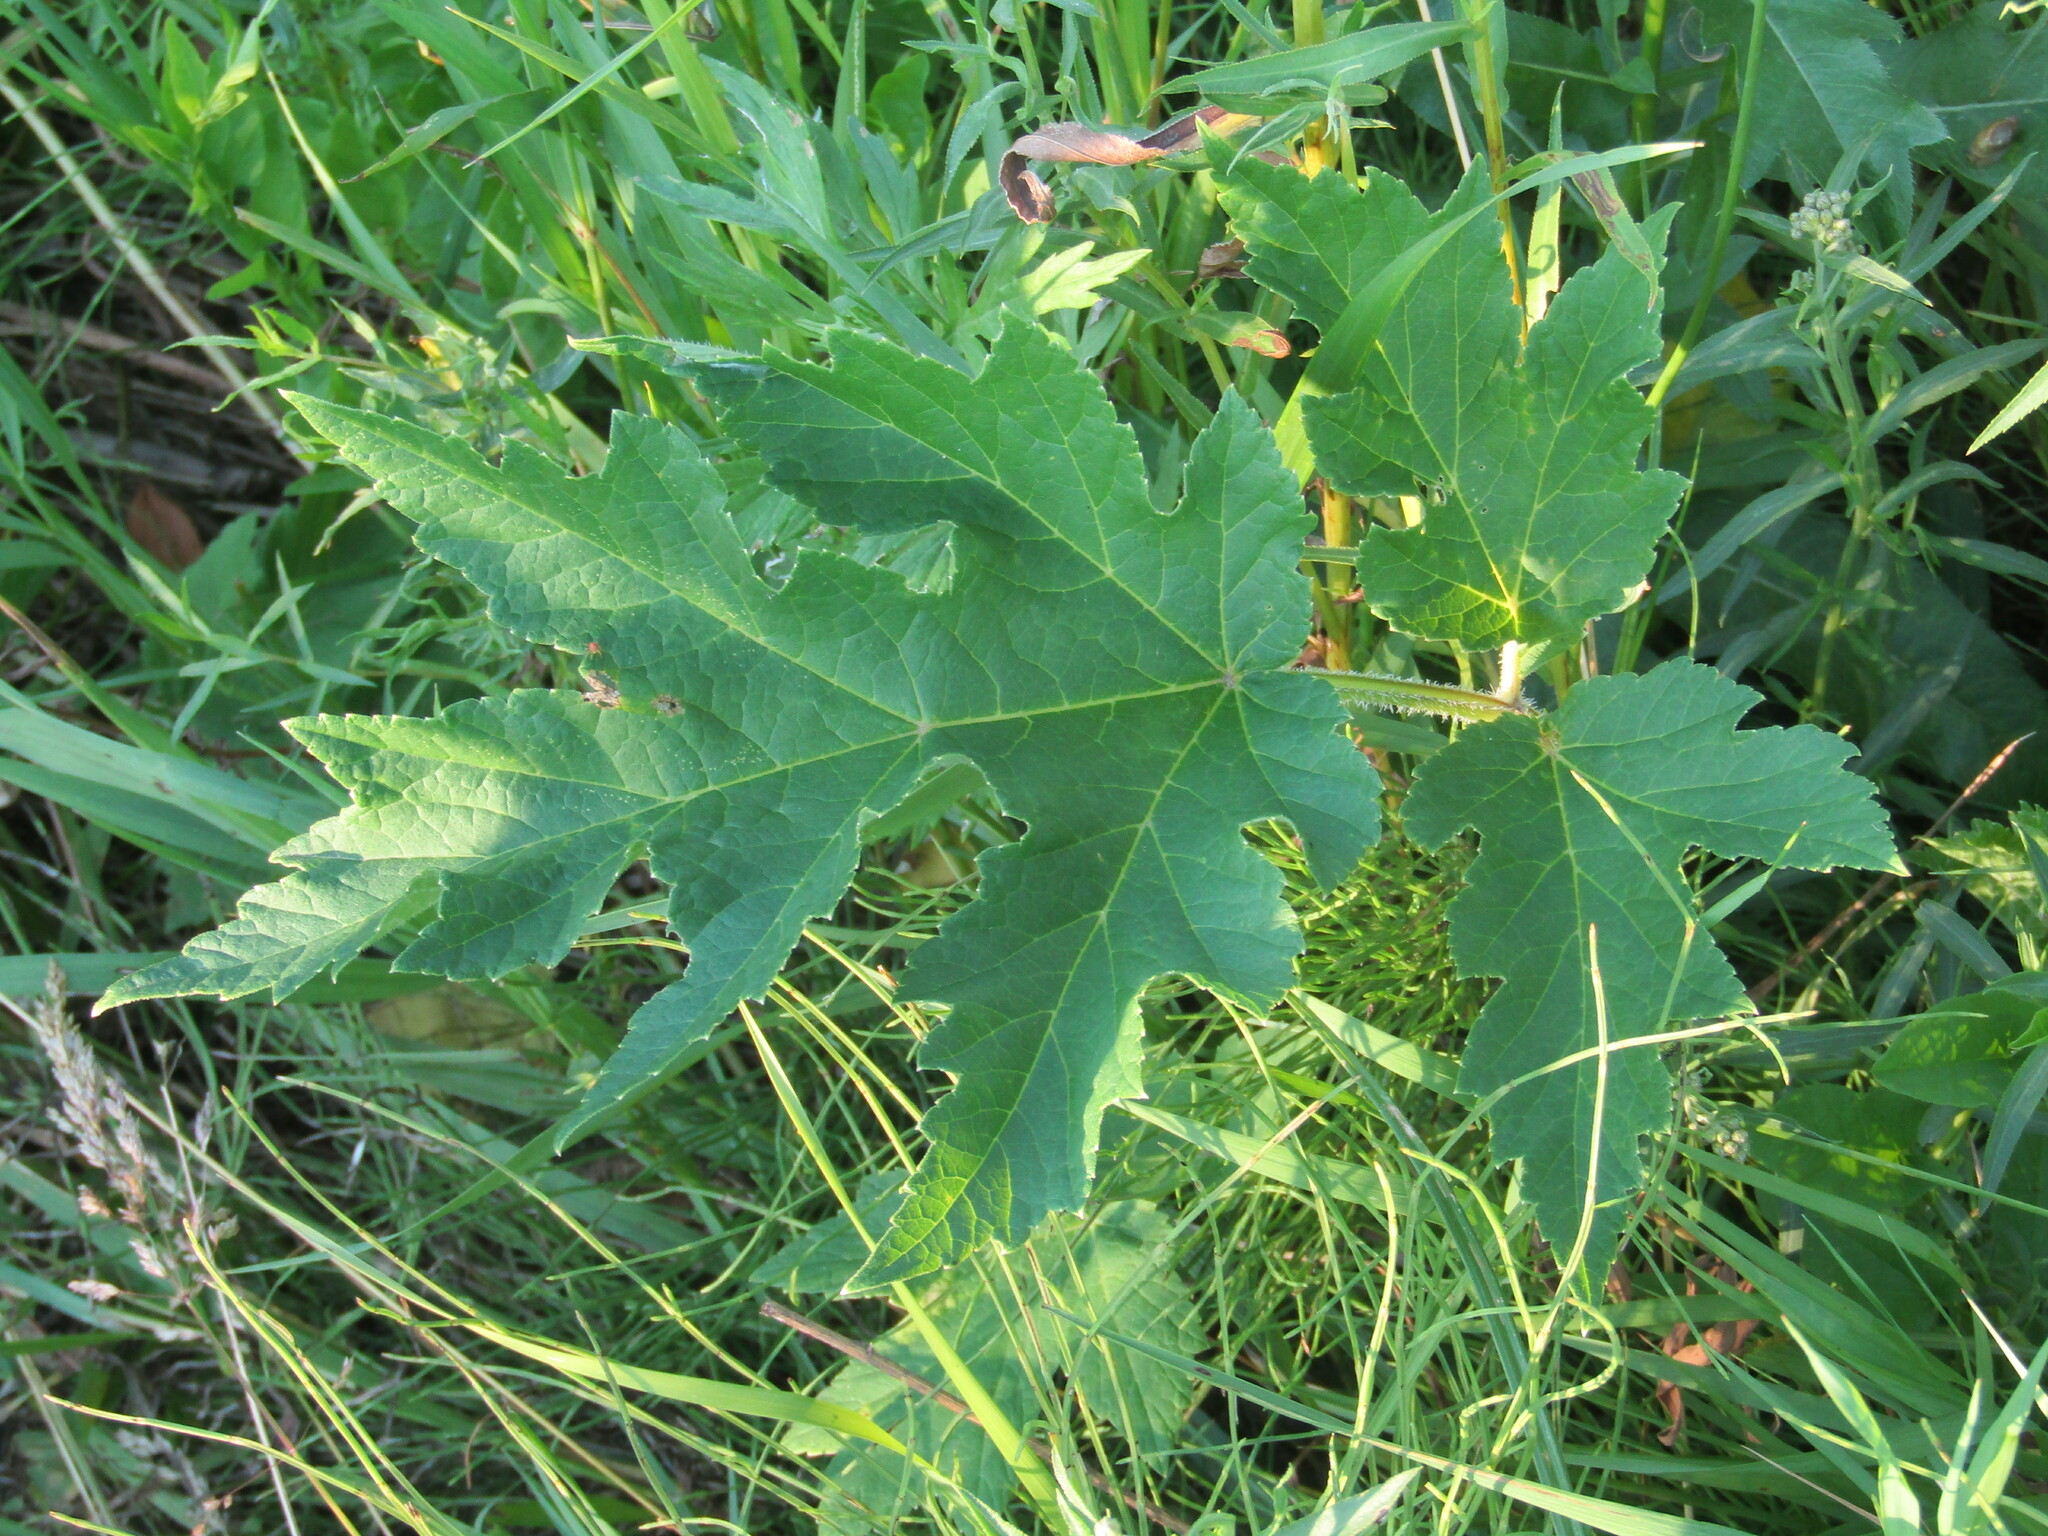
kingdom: Plantae
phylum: Tracheophyta
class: Magnoliopsida
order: Apiales
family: Apiaceae
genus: Heracleum
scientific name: Heracleum sphondylium
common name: Hogweed
